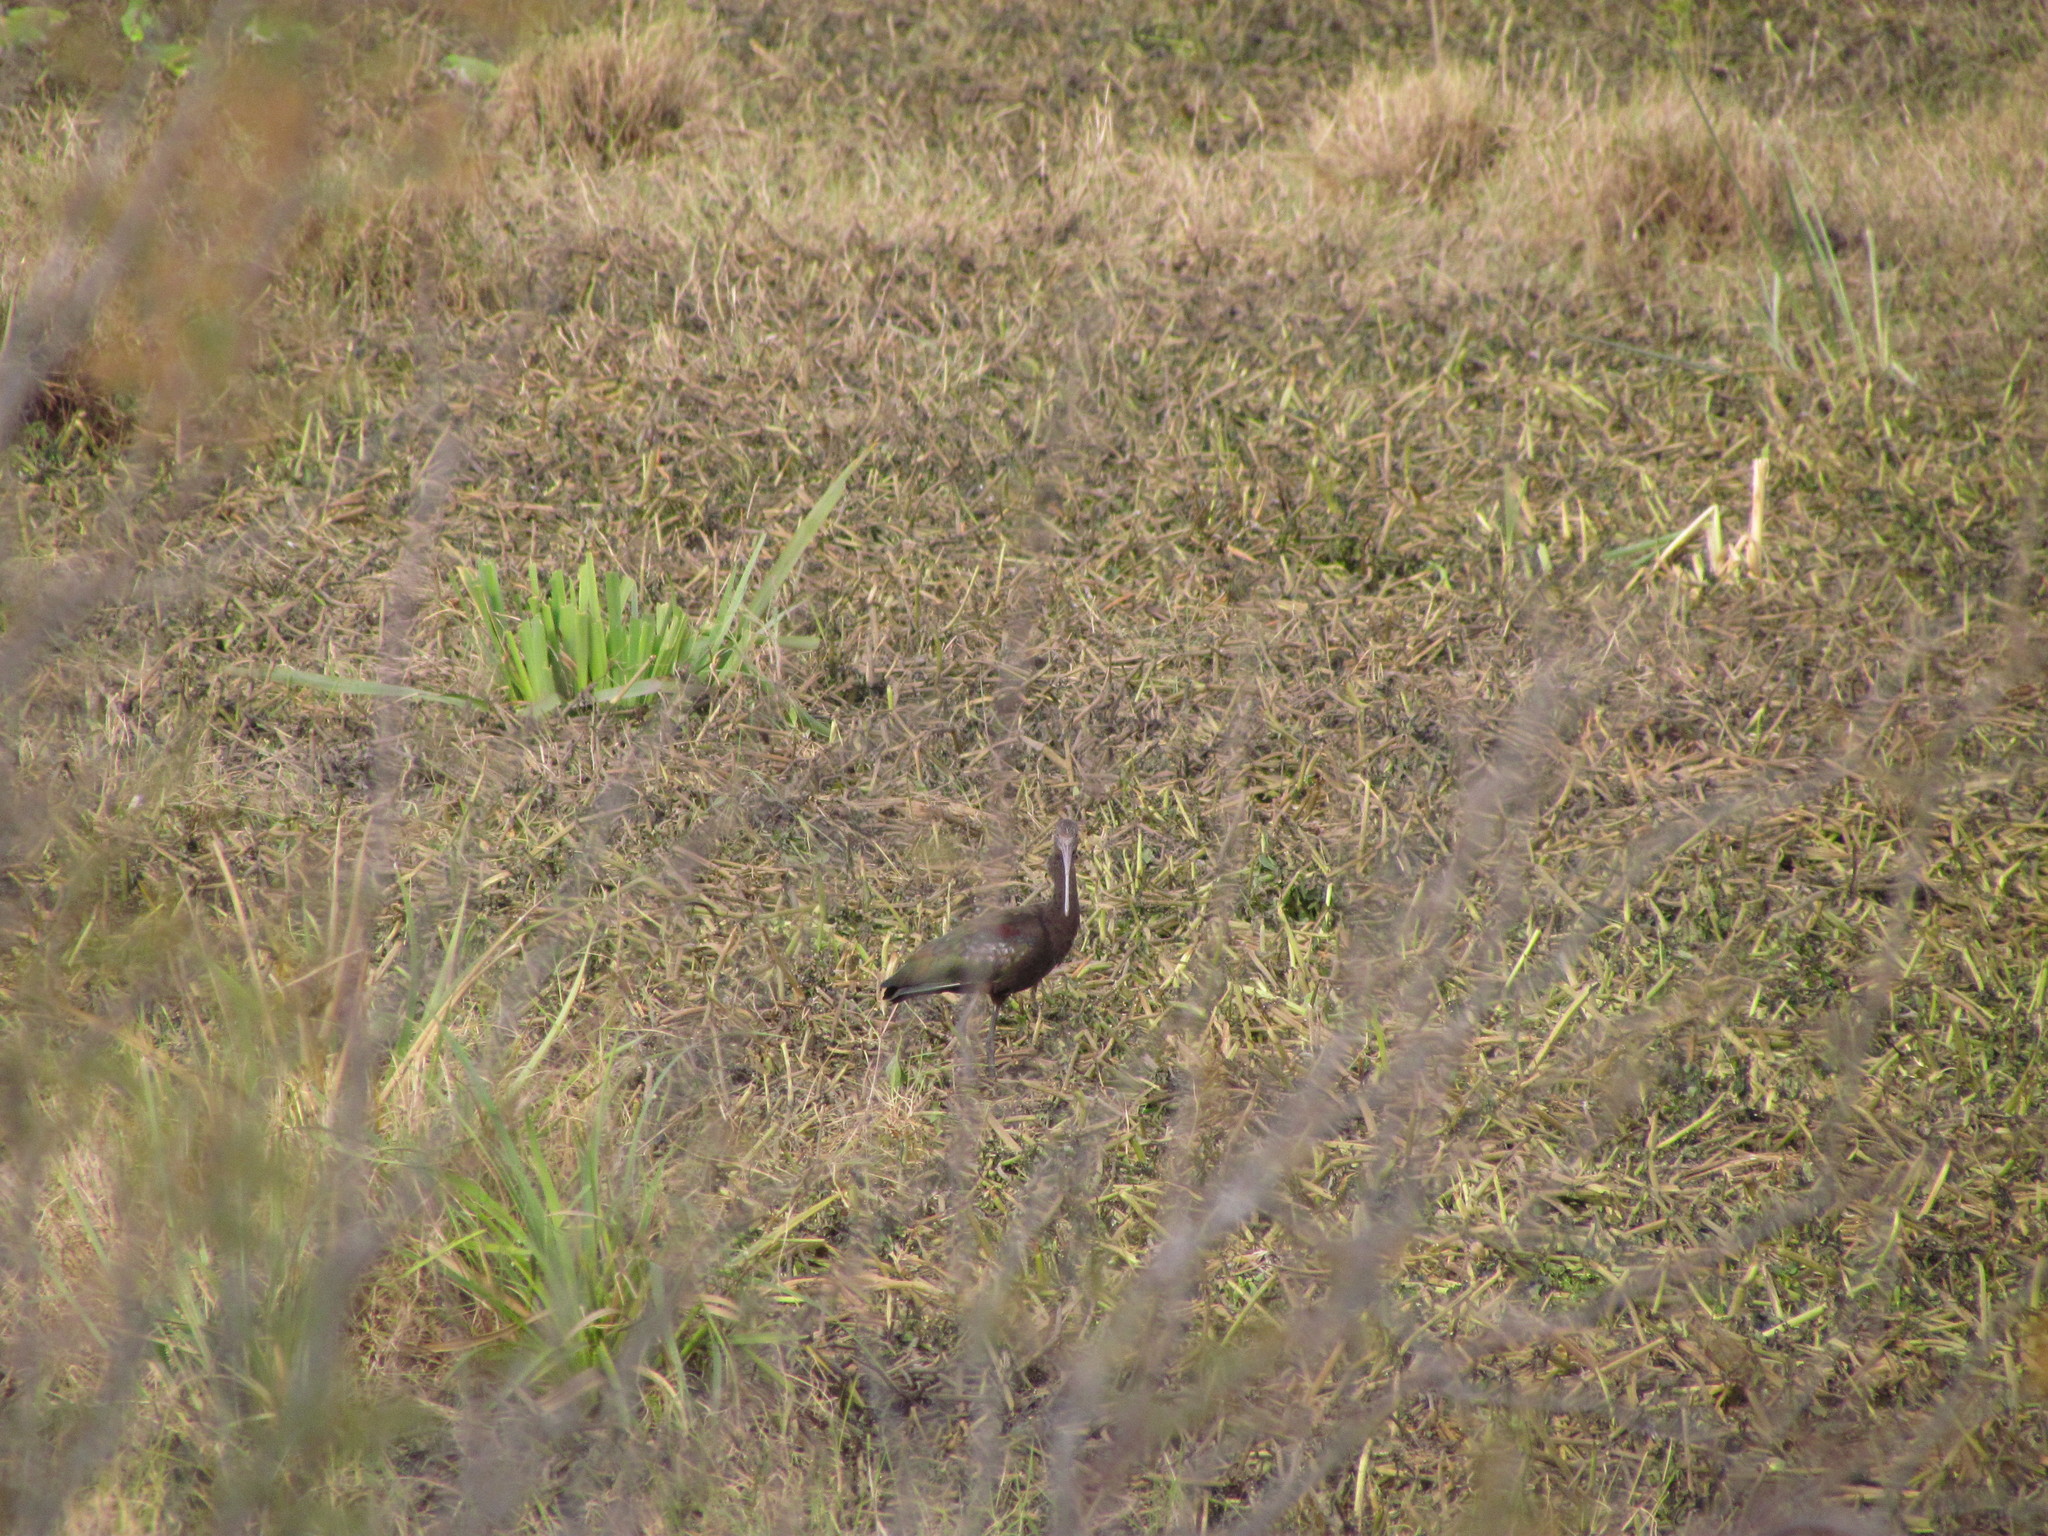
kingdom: Animalia
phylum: Chordata
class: Aves
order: Pelecaniformes
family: Threskiornithidae
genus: Plegadis
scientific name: Plegadis chihi
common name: White-faced ibis
